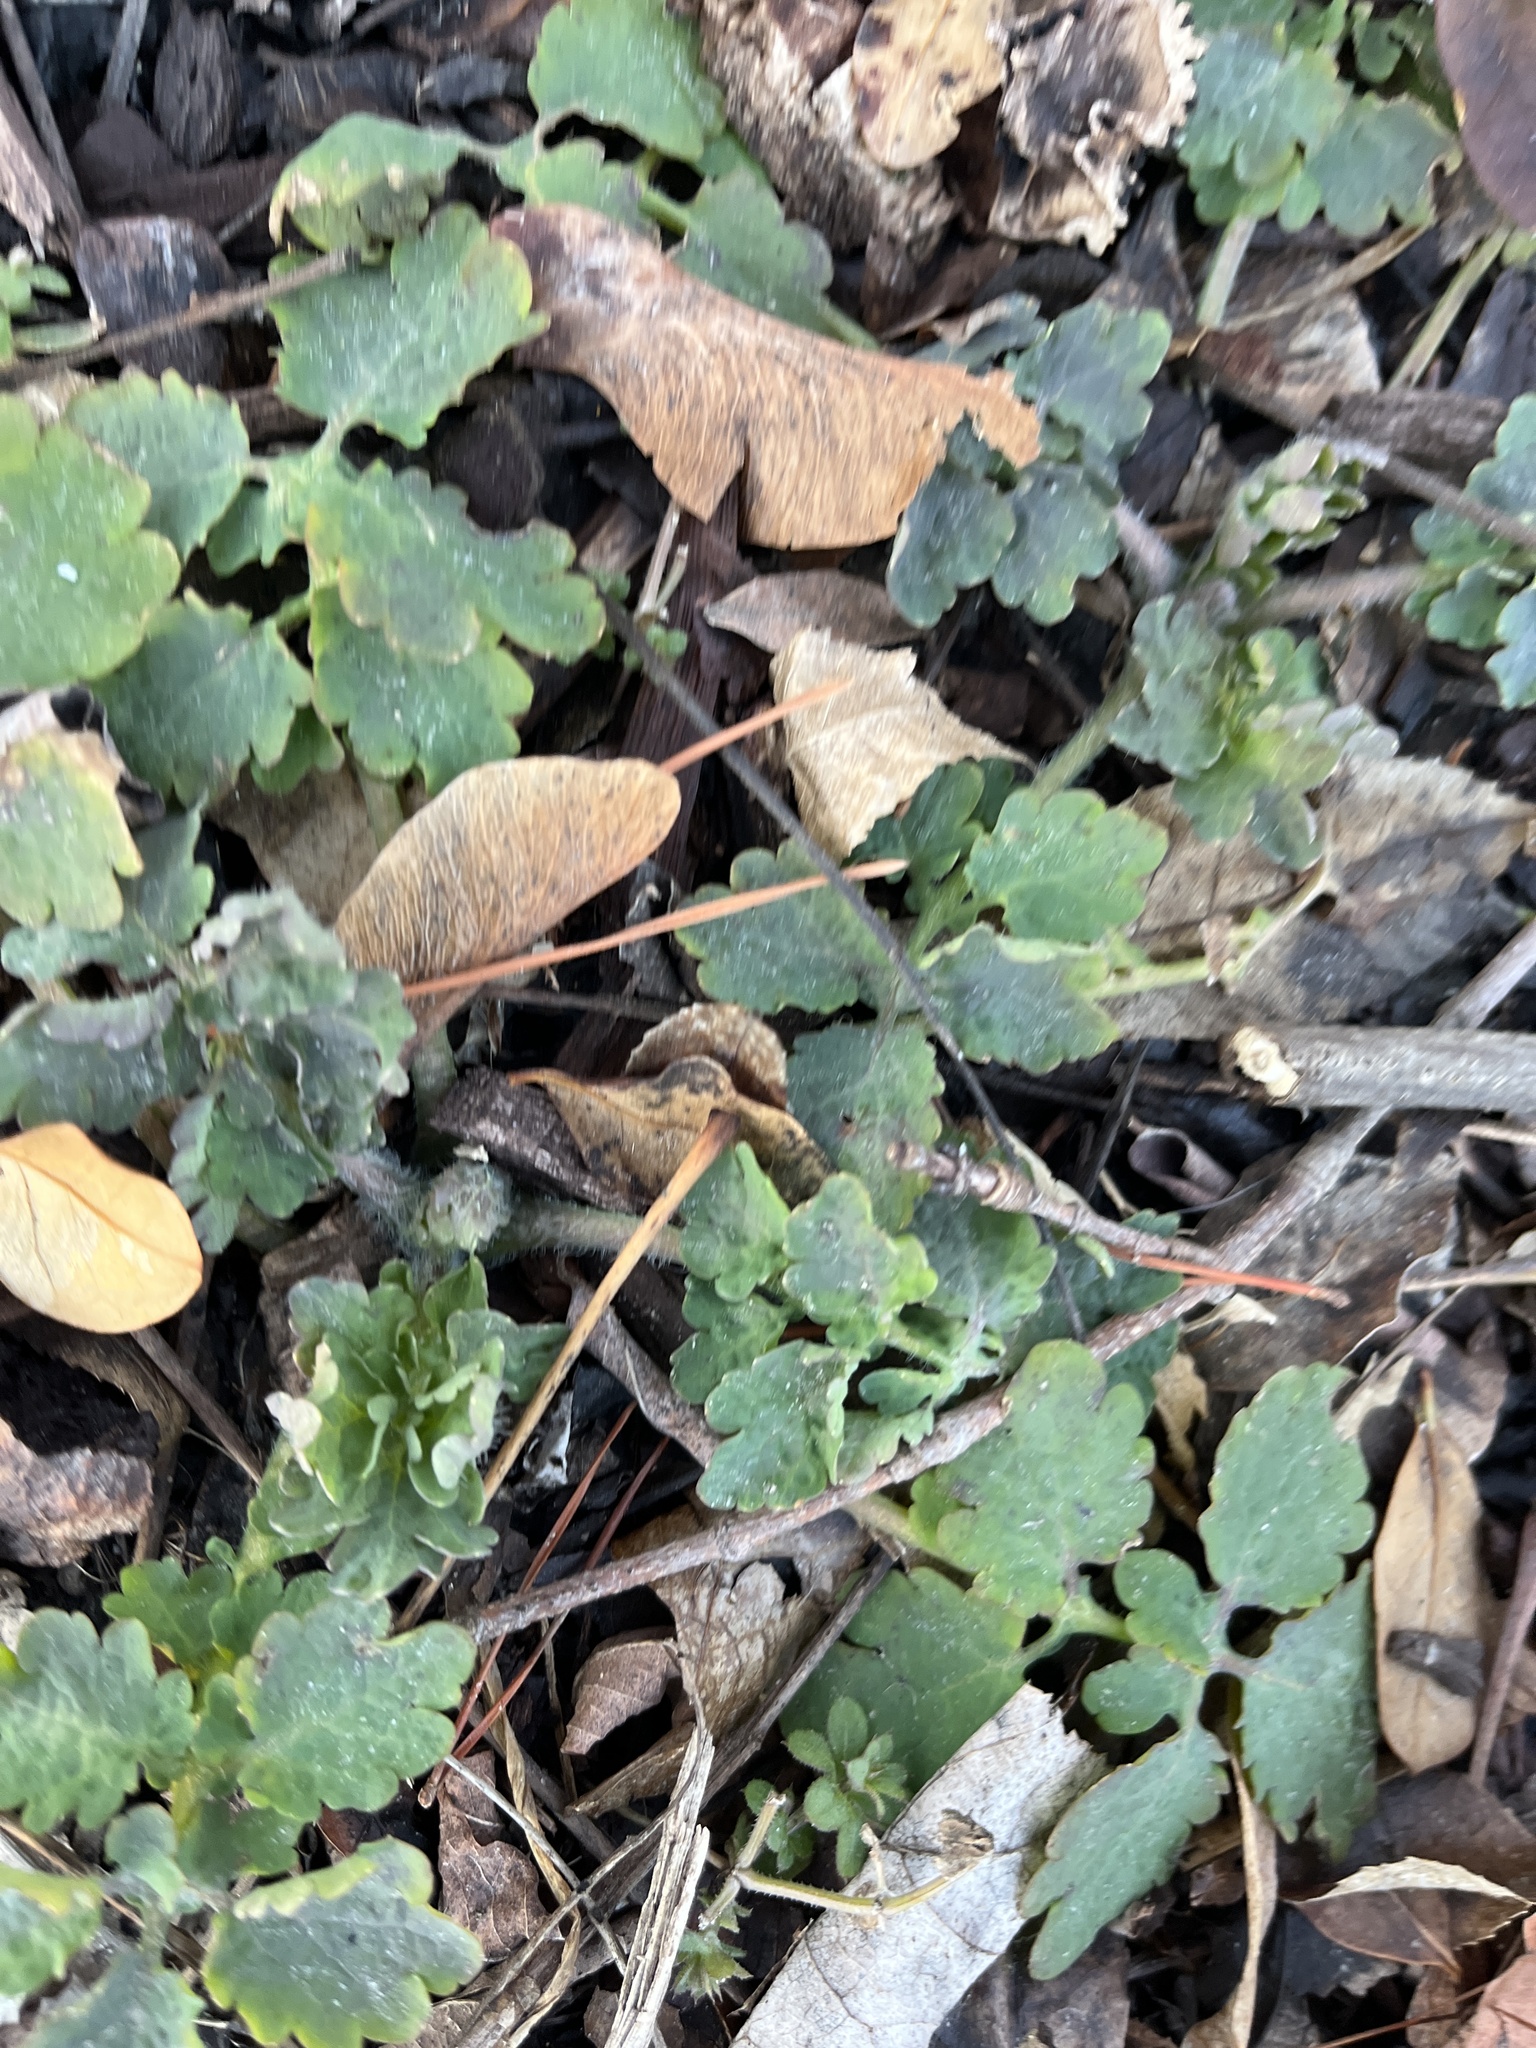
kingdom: Plantae
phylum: Tracheophyta
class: Magnoliopsida
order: Ranunculales
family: Papaveraceae
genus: Chelidonium
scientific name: Chelidonium majus
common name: Greater celandine
